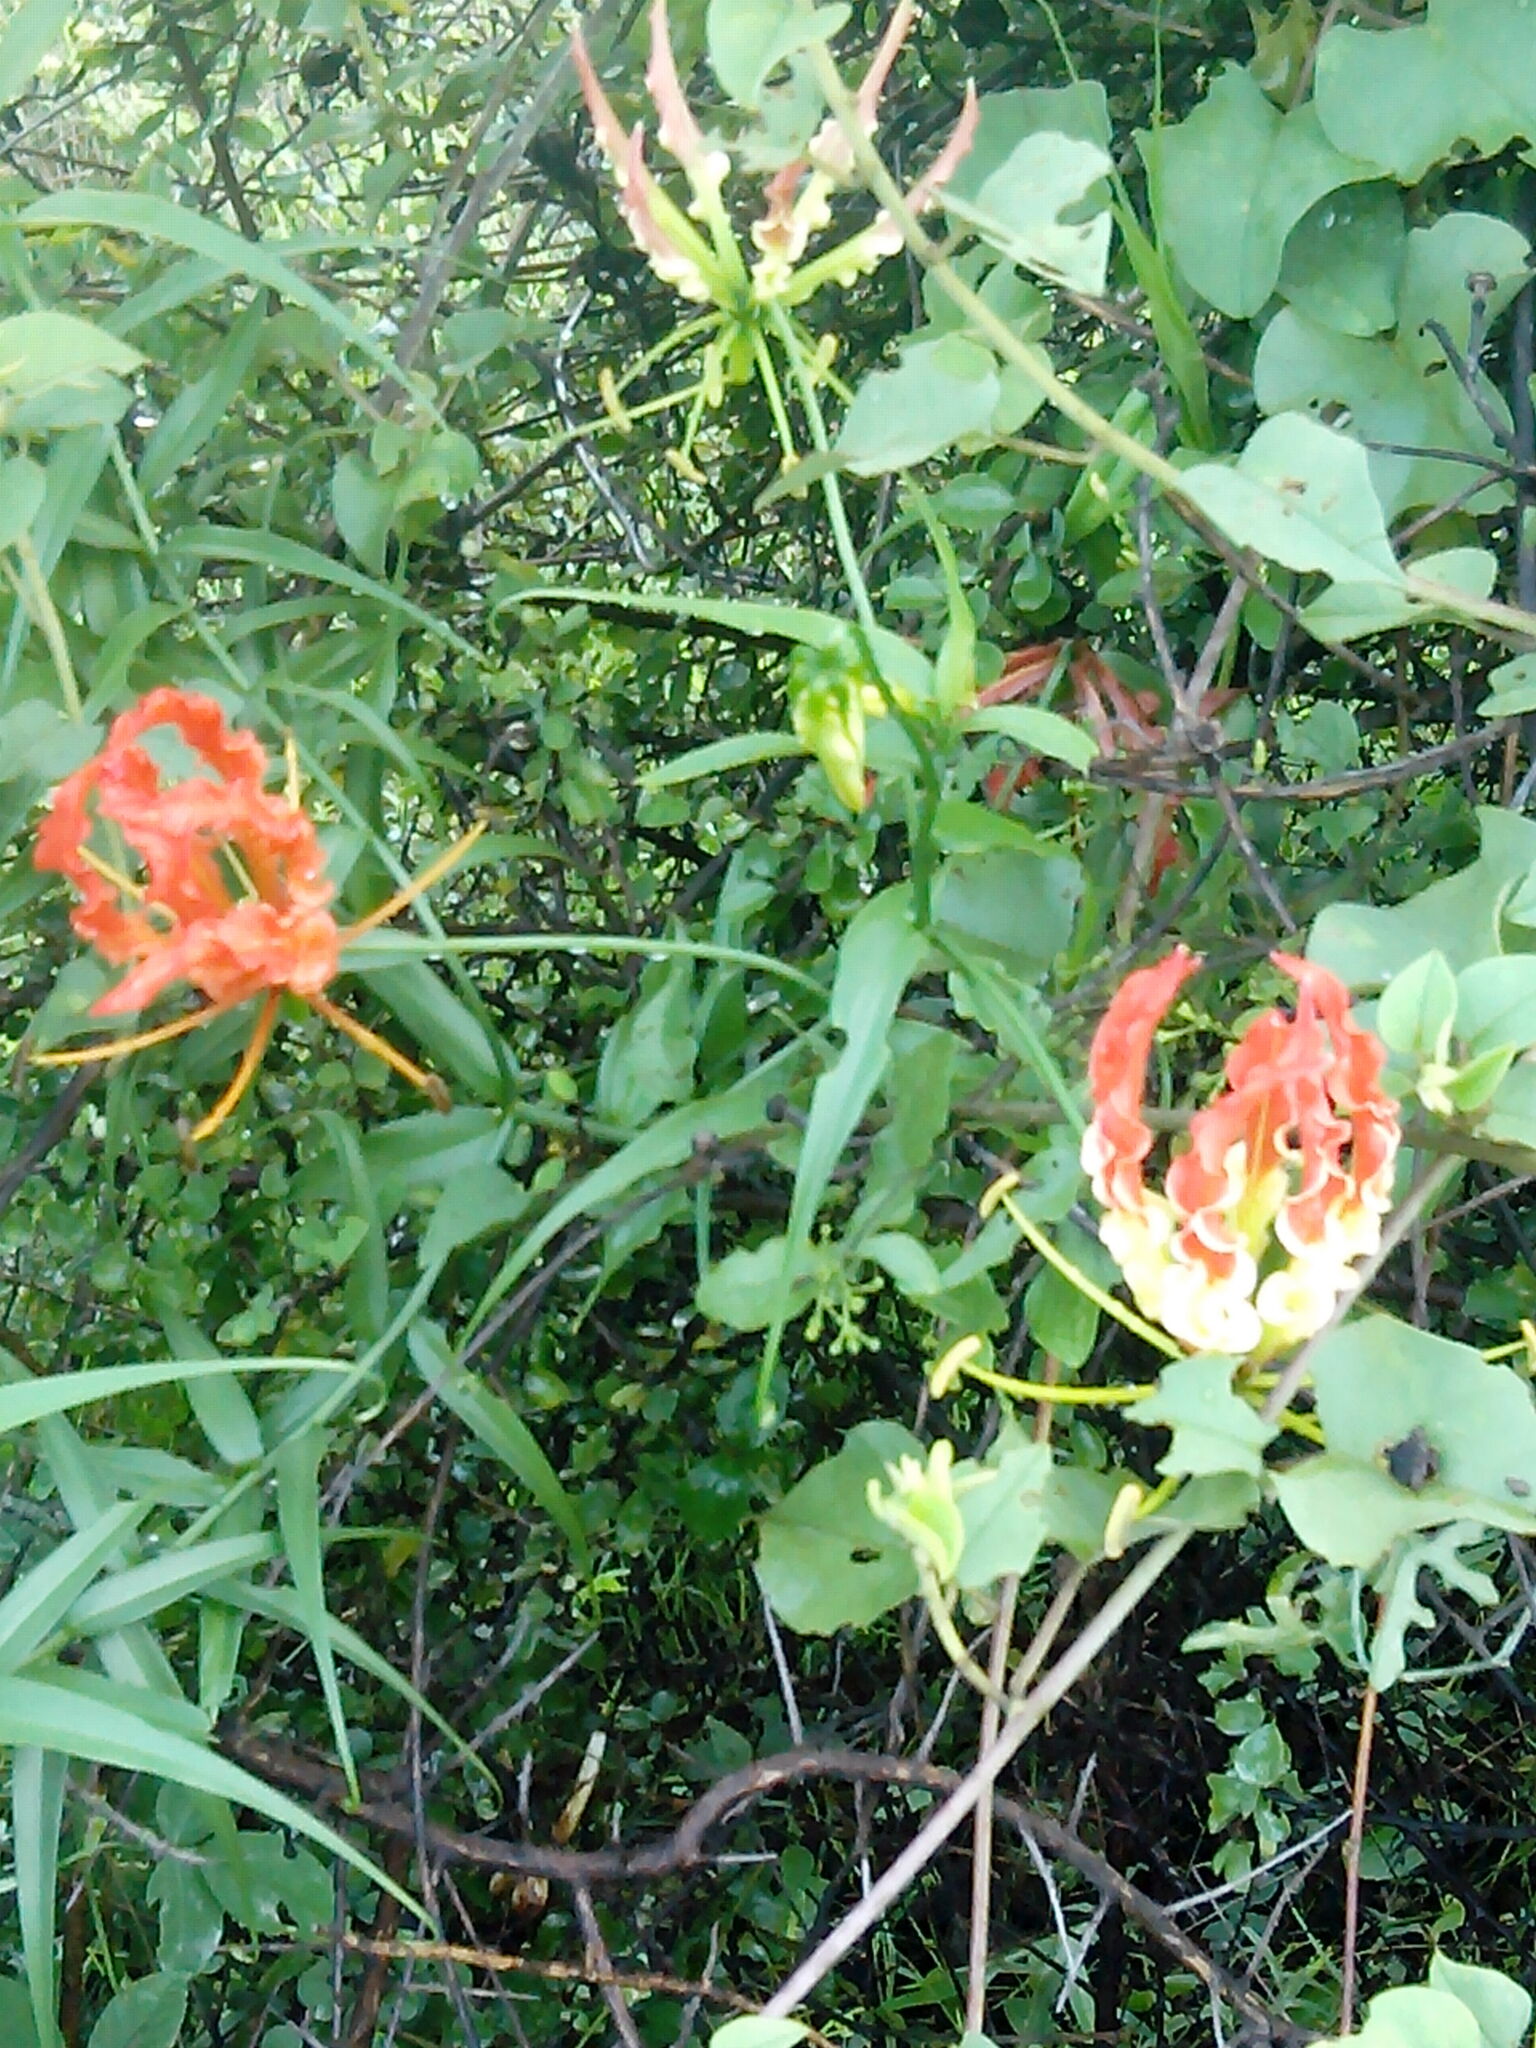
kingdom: Plantae
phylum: Tracheophyta
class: Liliopsida
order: Liliales
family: Colchicaceae
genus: Gloriosa
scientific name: Gloriosa superba
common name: Flame lily
